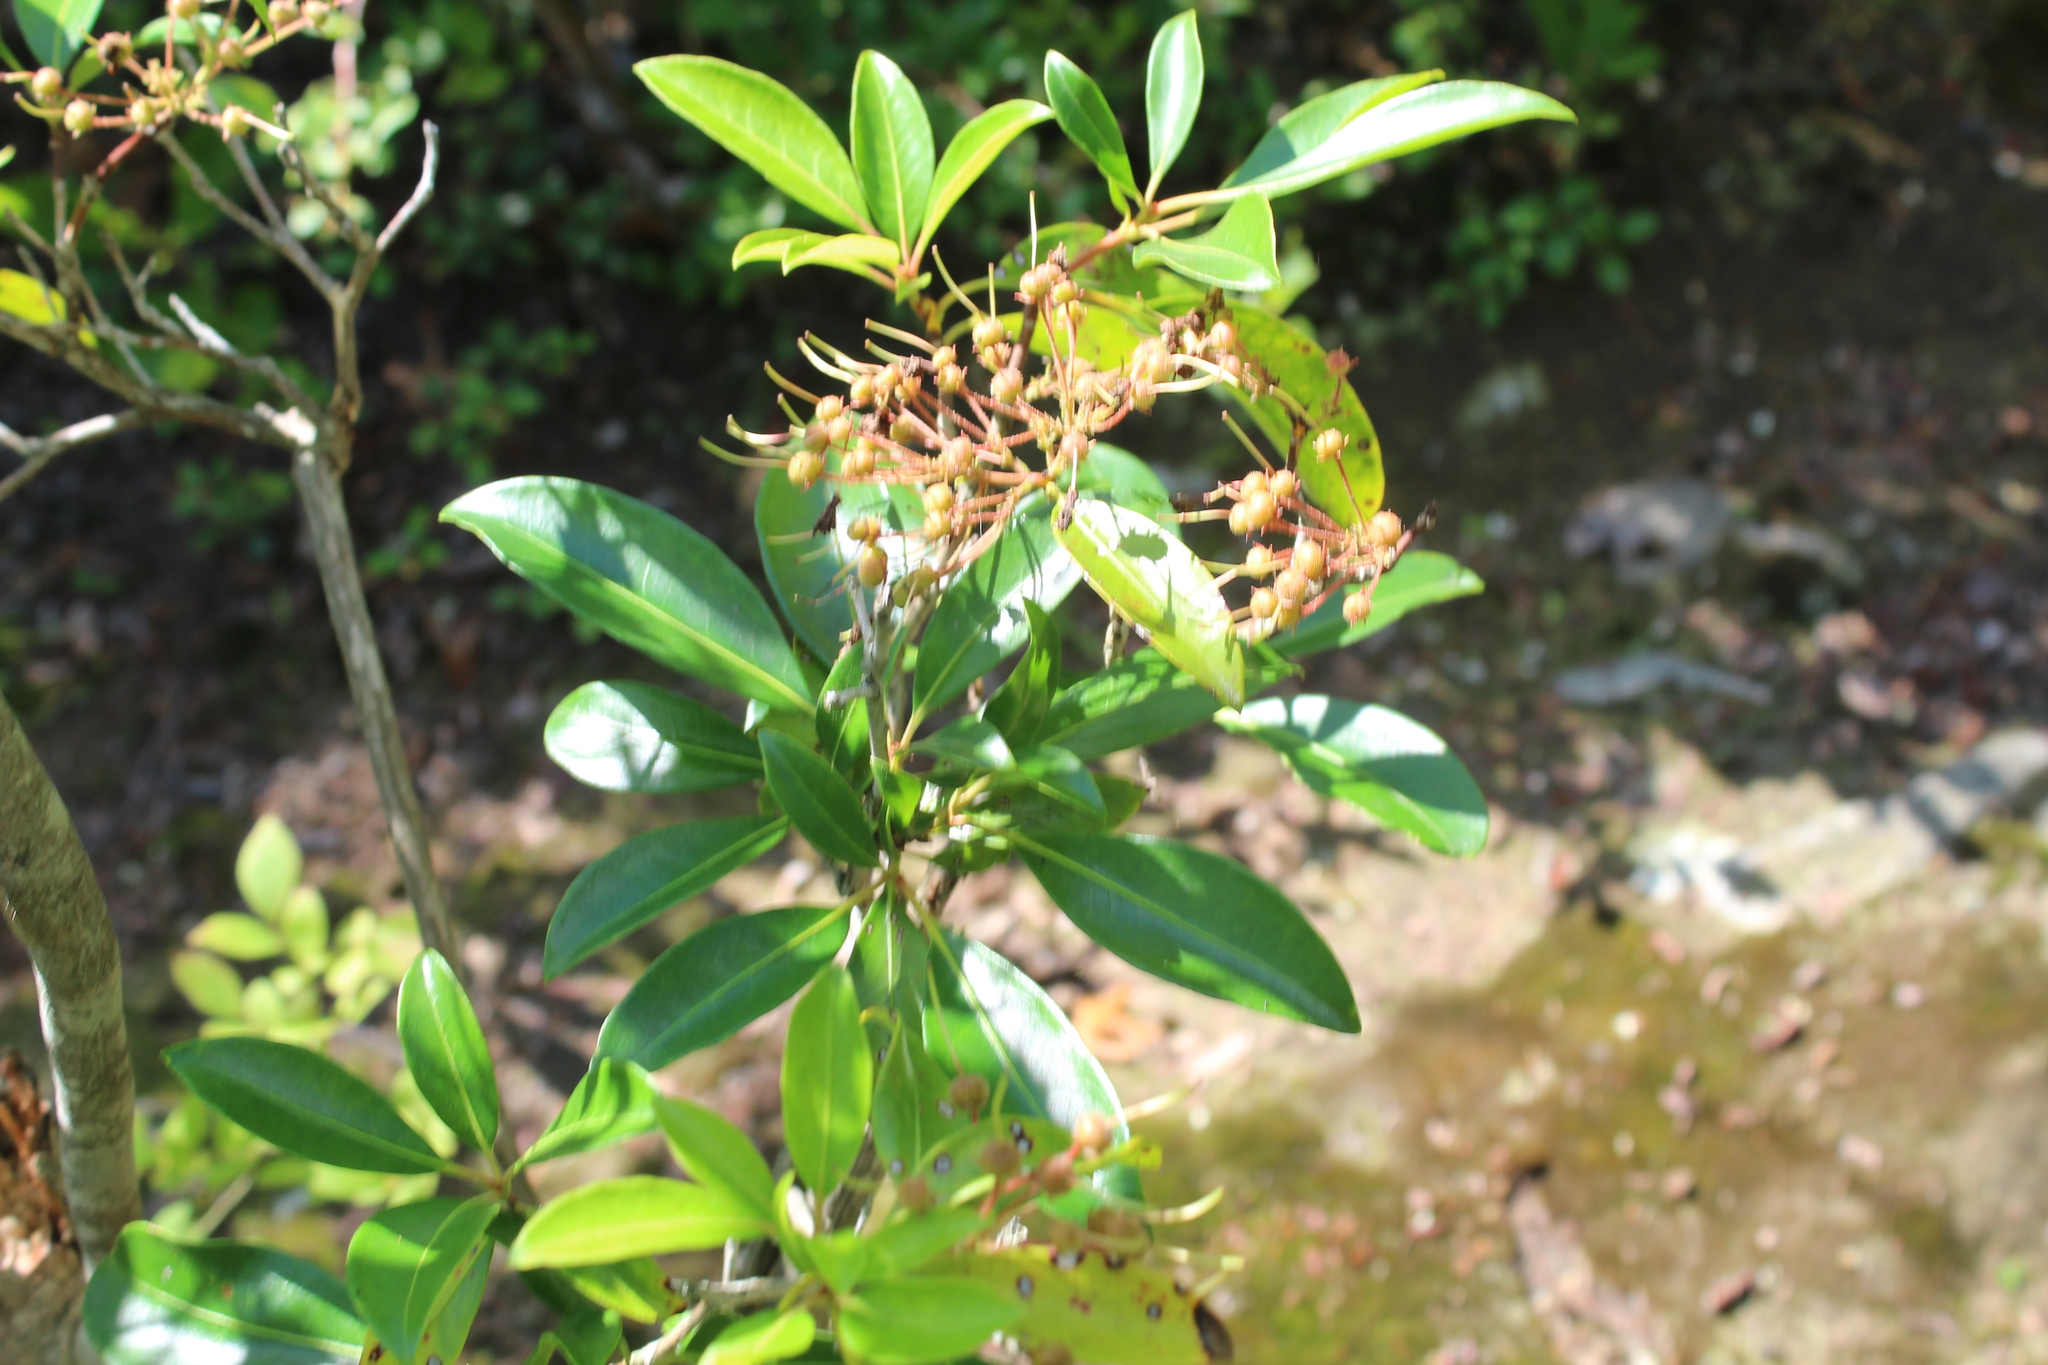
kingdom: Plantae
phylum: Tracheophyta
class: Magnoliopsida
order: Ericales
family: Ericaceae
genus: Kalmia
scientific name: Kalmia latifolia
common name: Mountain-laurel
